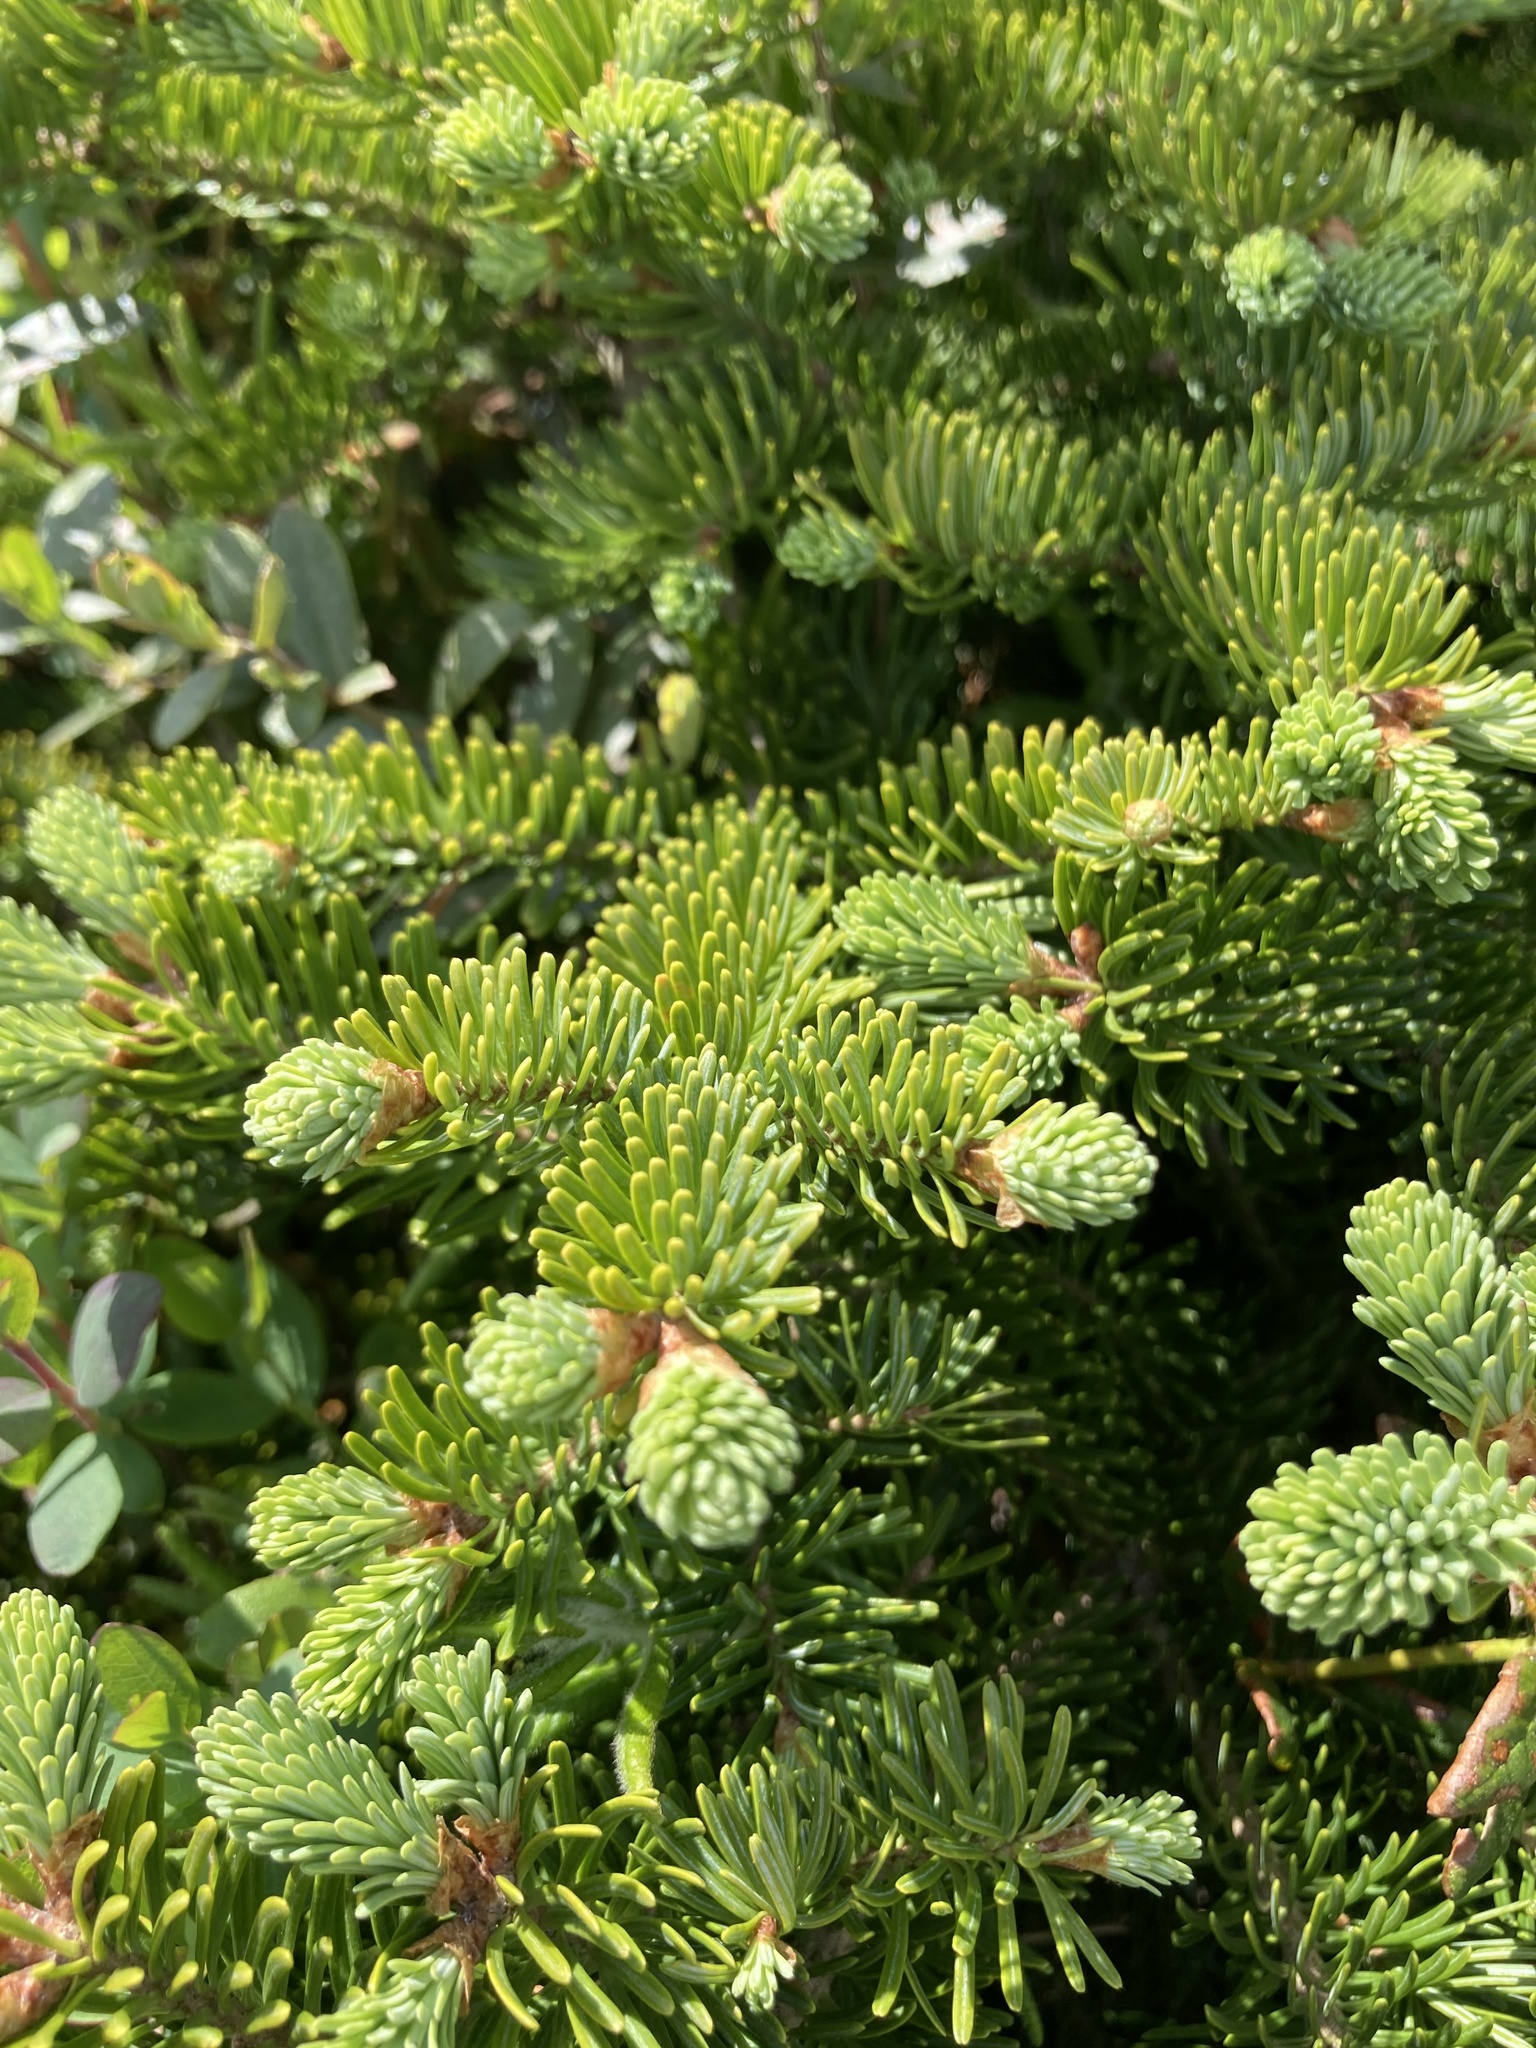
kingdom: Plantae
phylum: Tracheophyta
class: Pinopsida
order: Pinales
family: Pinaceae
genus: Abies
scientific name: Abies balsamea
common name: Balsam fir
